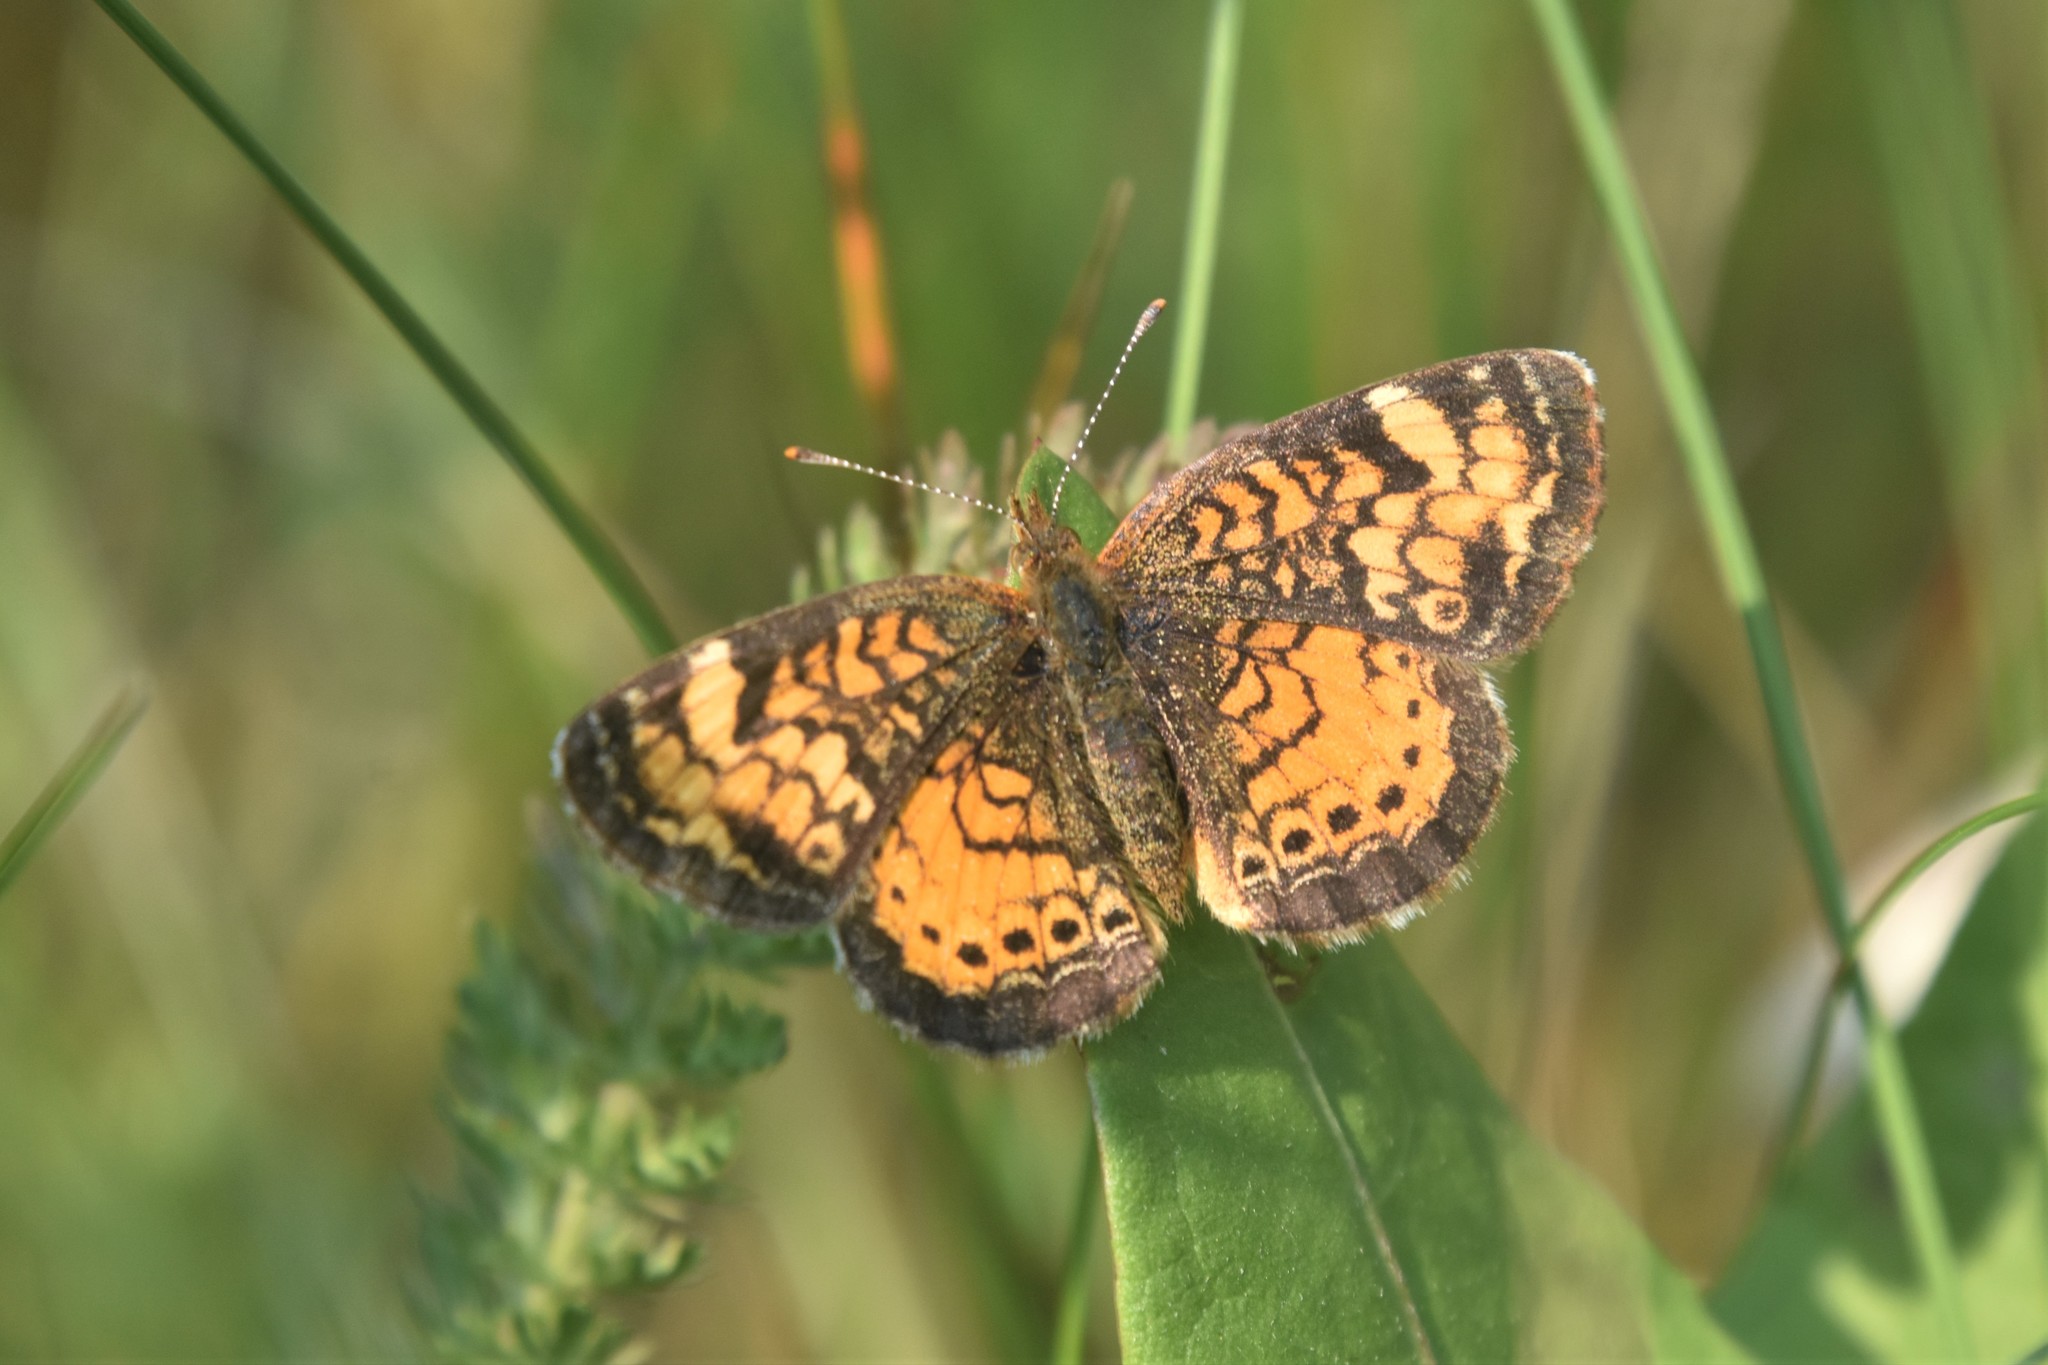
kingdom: Animalia
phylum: Arthropoda
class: Insecta
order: Lepidoptera
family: Nymphalidae
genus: Phyciodes
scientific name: Phyciodes tharos
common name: Pearl crescent
